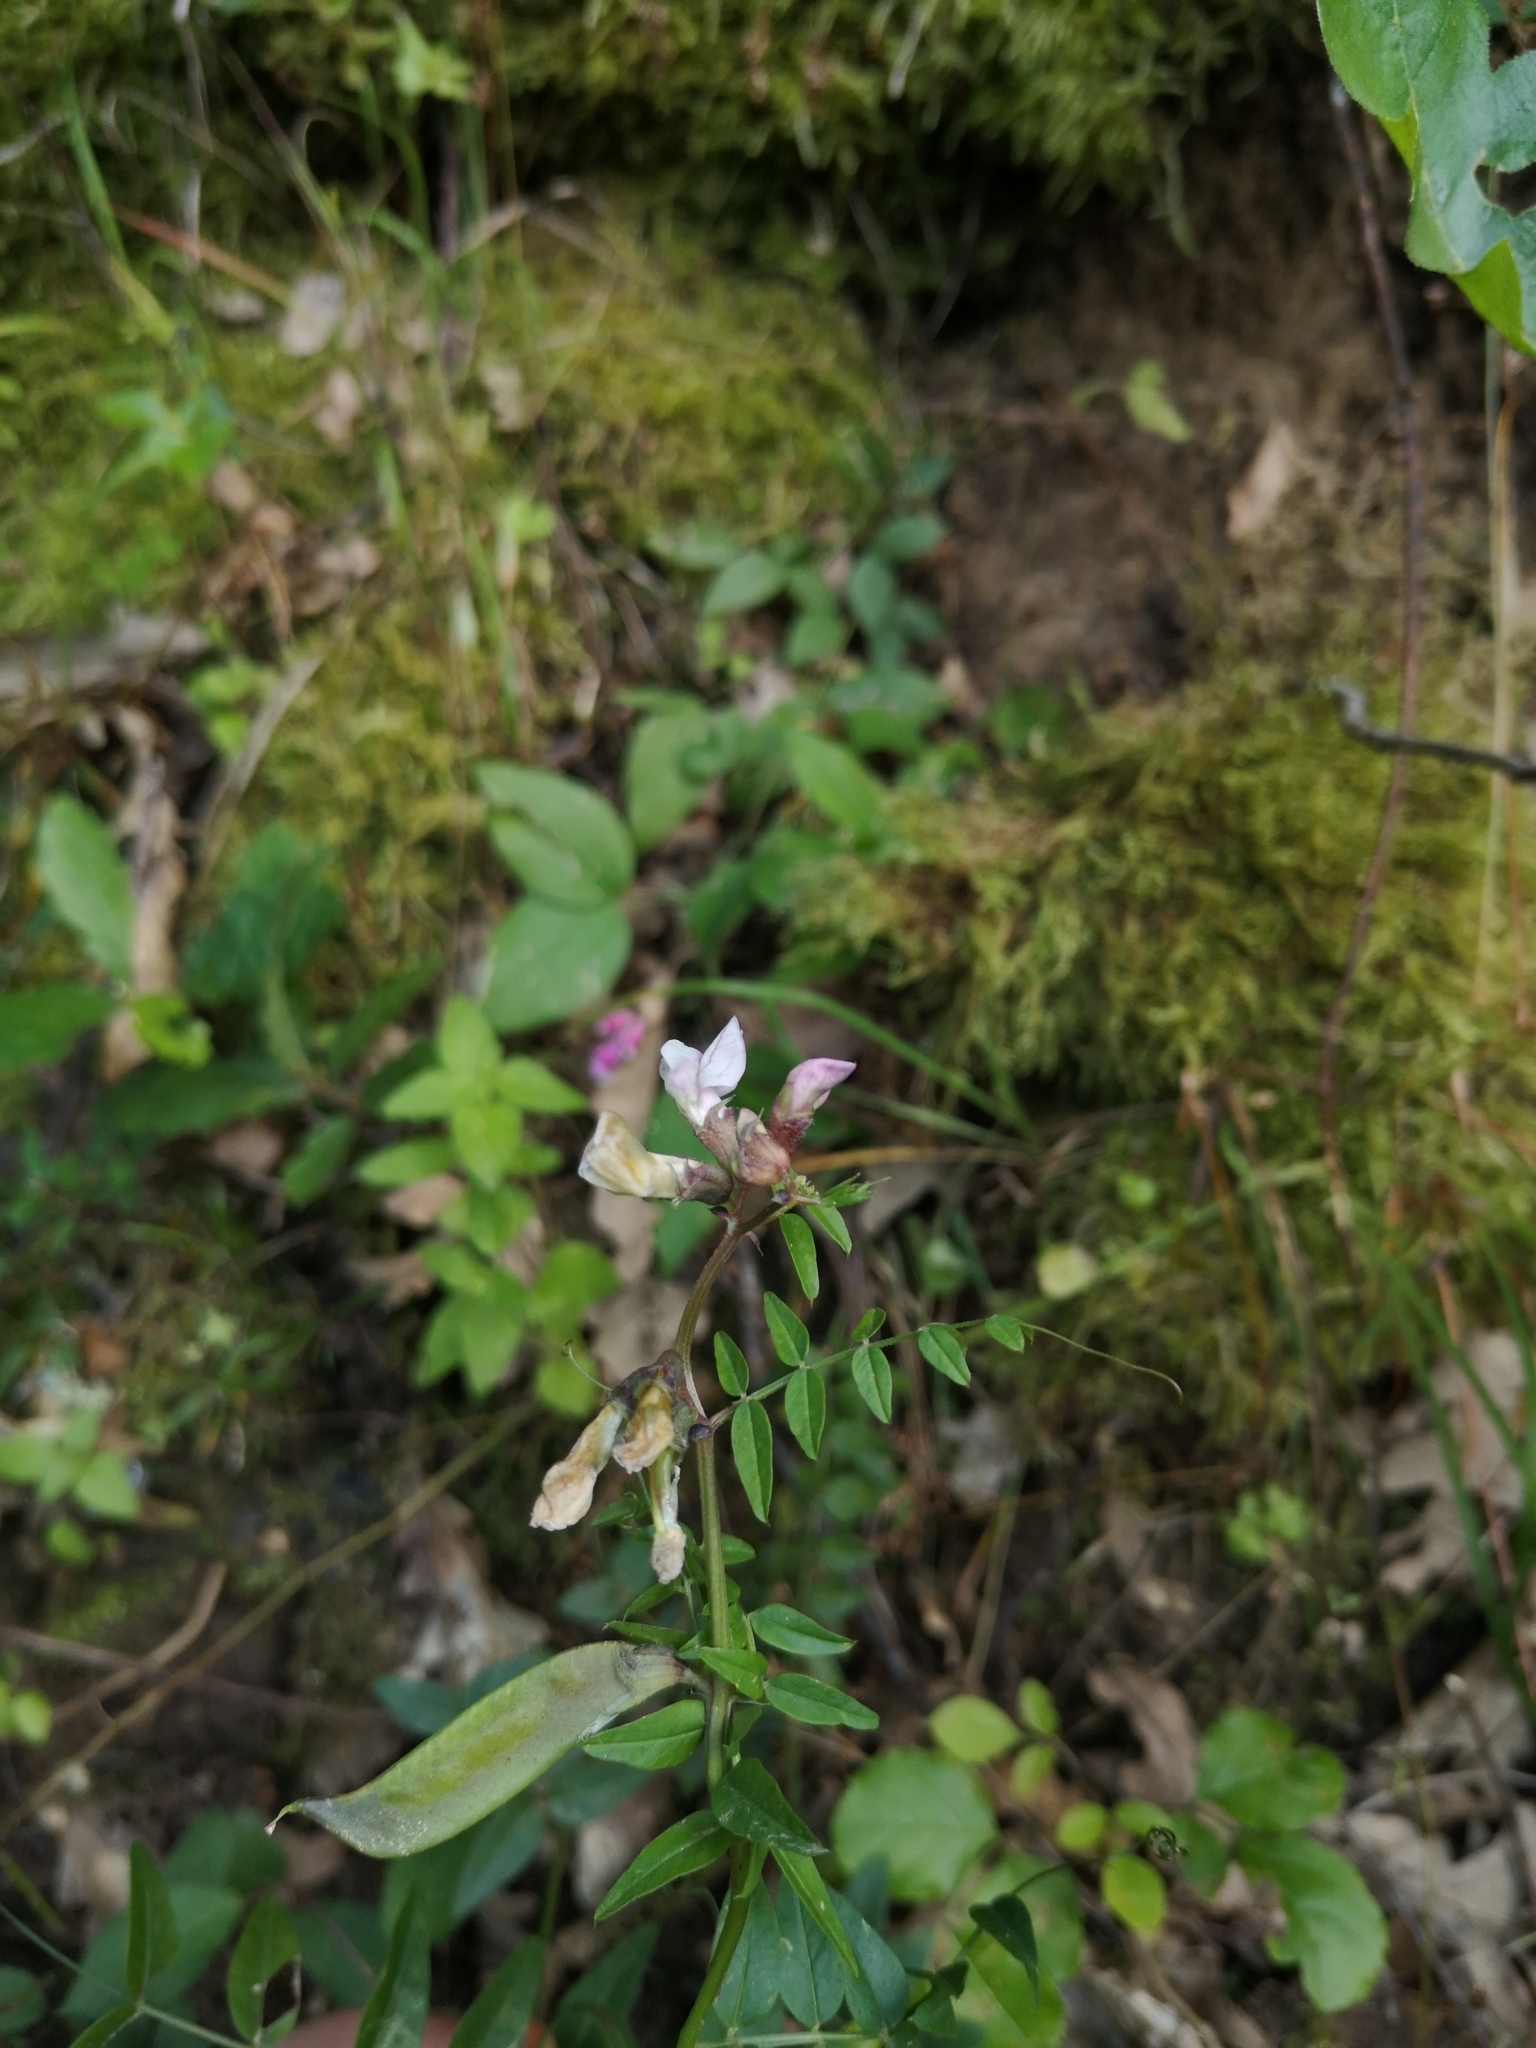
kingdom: Plantae
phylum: Tracheophyta
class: Magnoliopsida
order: Fabales
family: Fabaceae
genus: Vicia
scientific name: Vicia sepium
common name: Bush vetch
